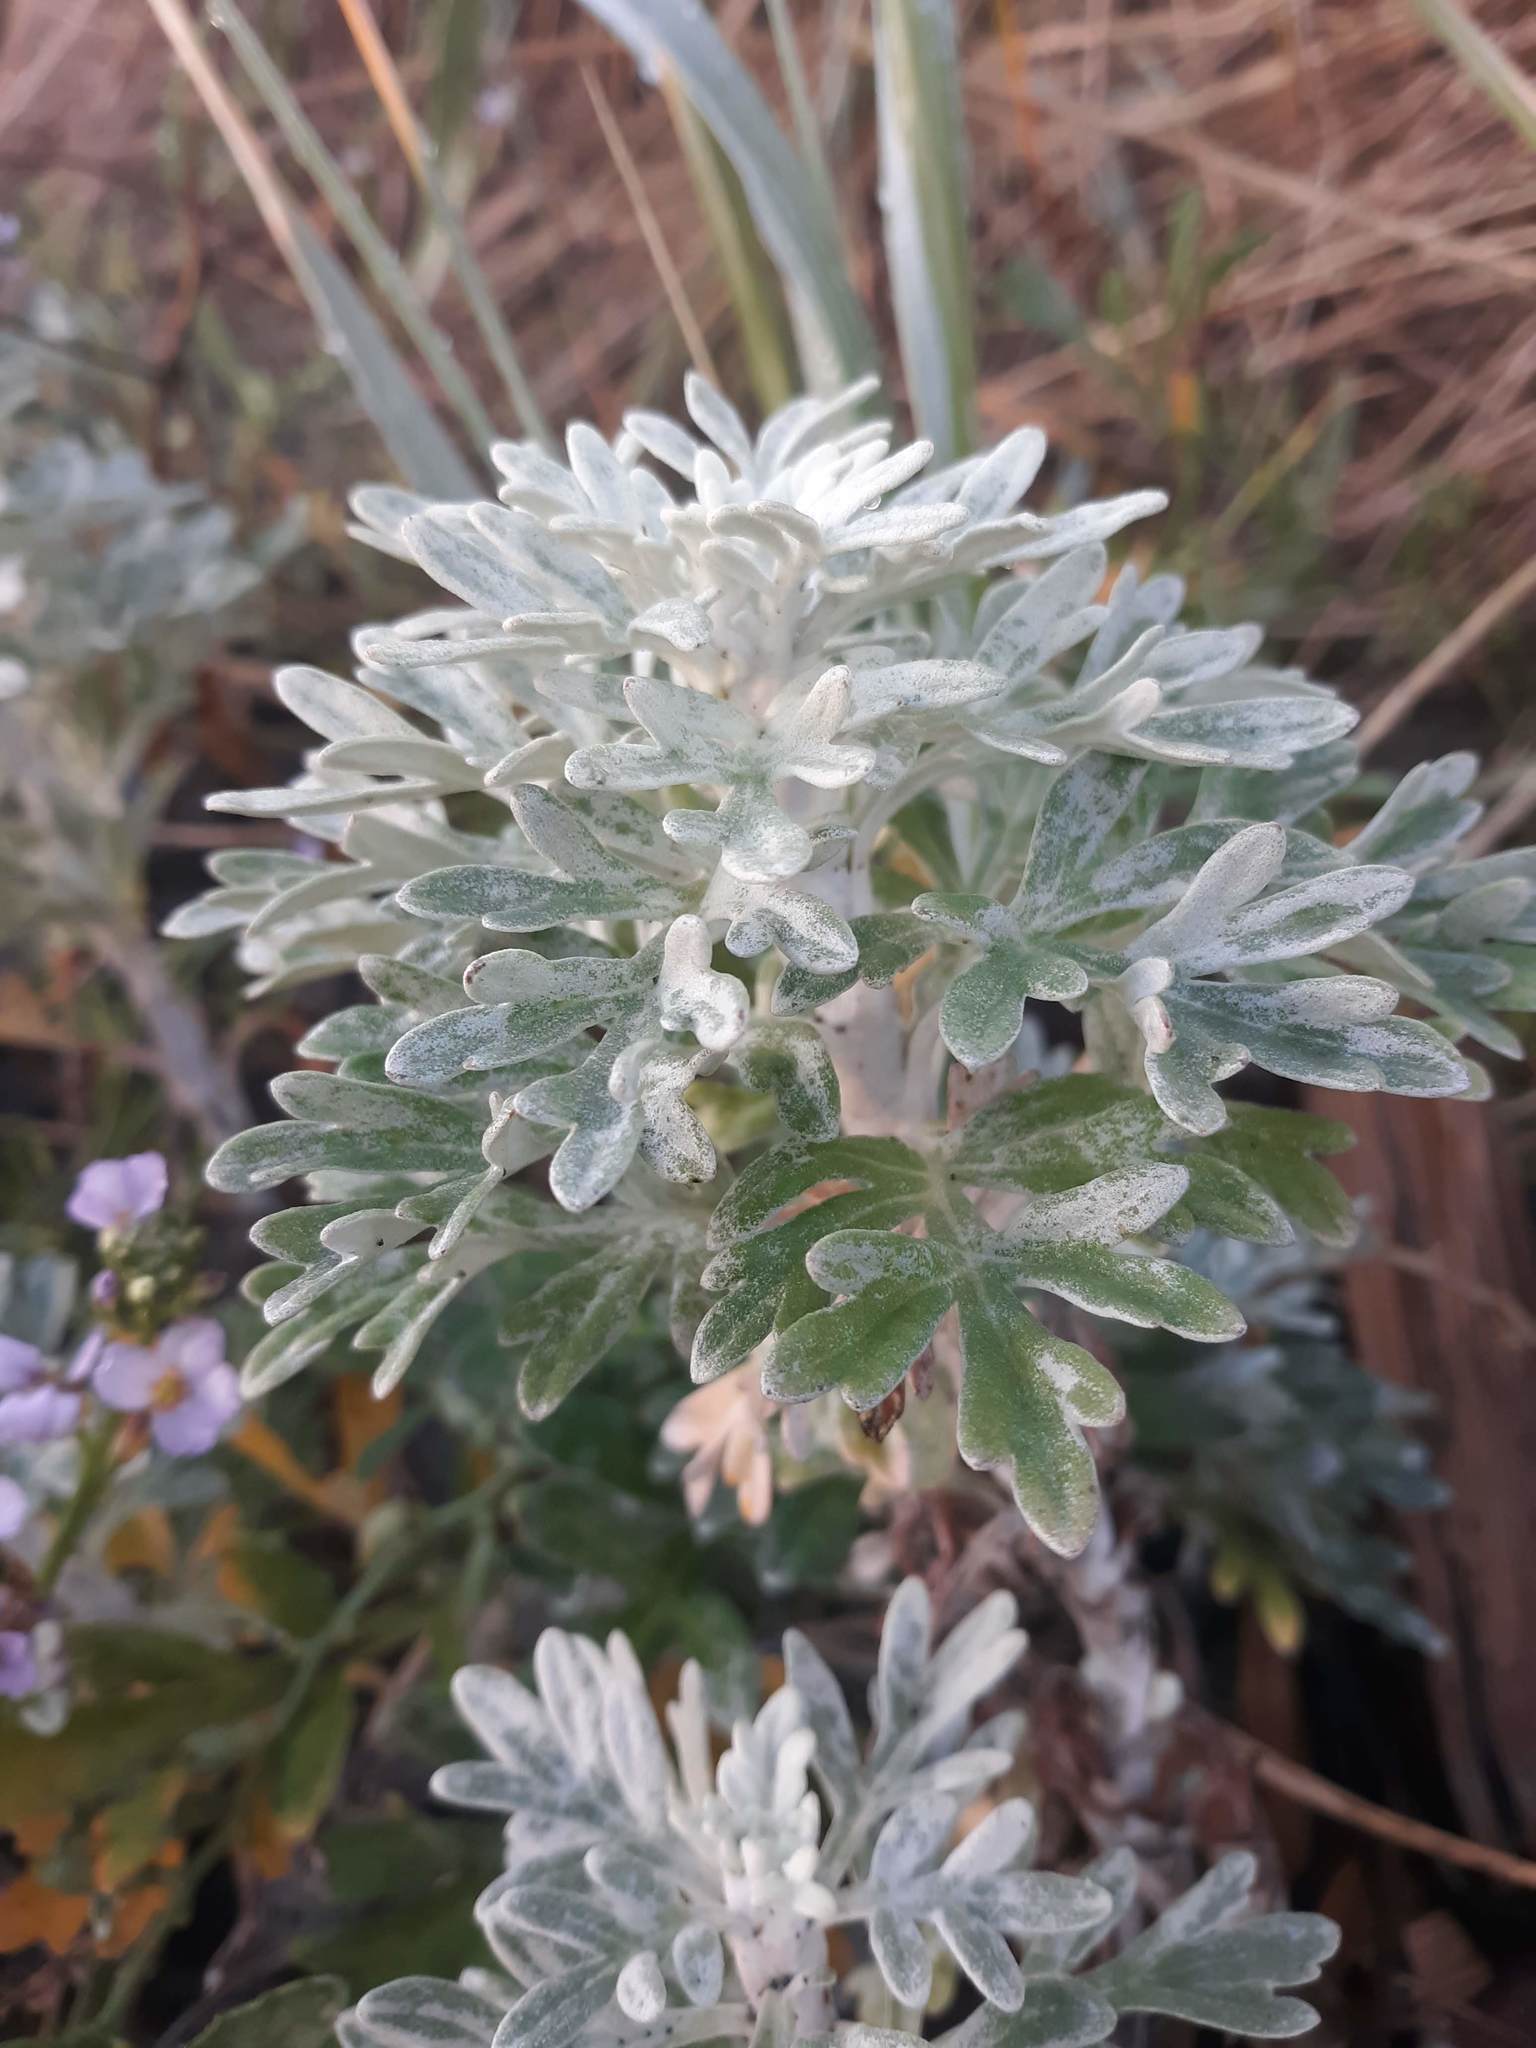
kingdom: Plantae
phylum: Tracheophyta
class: Magnoliopsida
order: Asterales
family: Asteraceae
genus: Artemisia
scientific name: Artemisia stelleriana
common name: Beach wormwood
